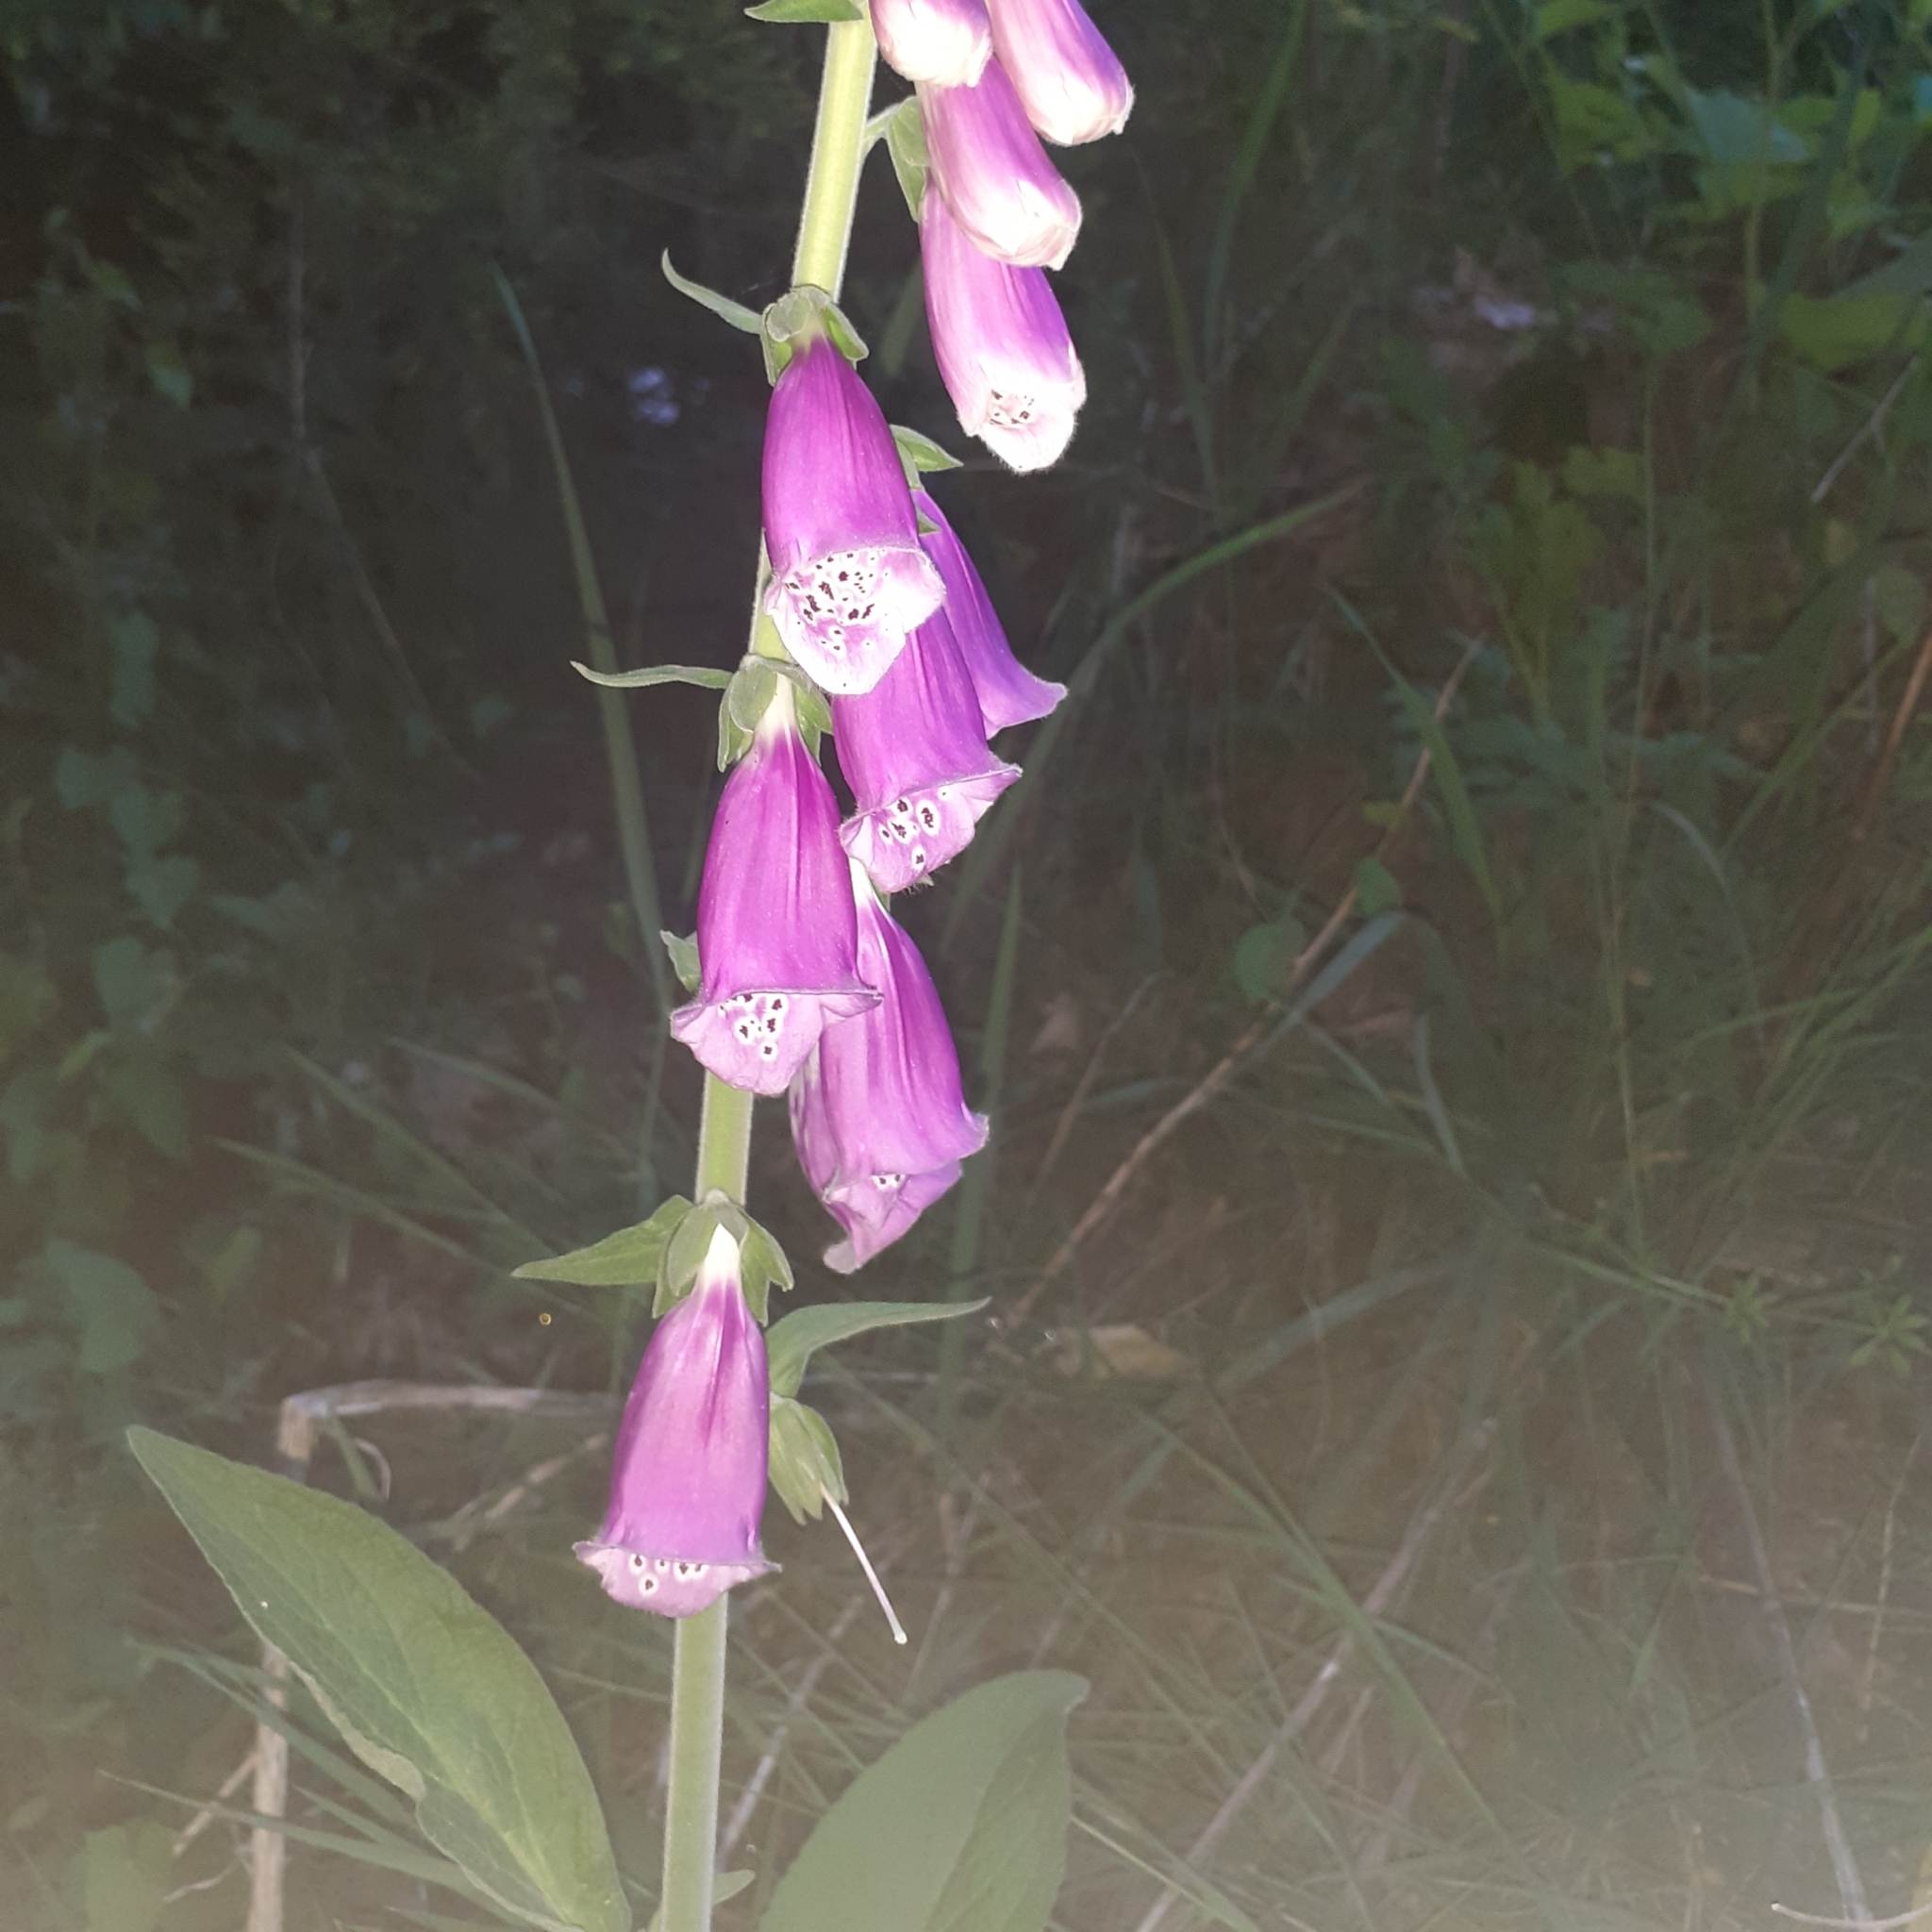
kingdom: Plantae
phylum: Tracheophyta
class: Magnoliopsida
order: Lamiales
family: Plantaginaceae
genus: Digitalis
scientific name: Digitalis purpurea
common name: Foxglove
